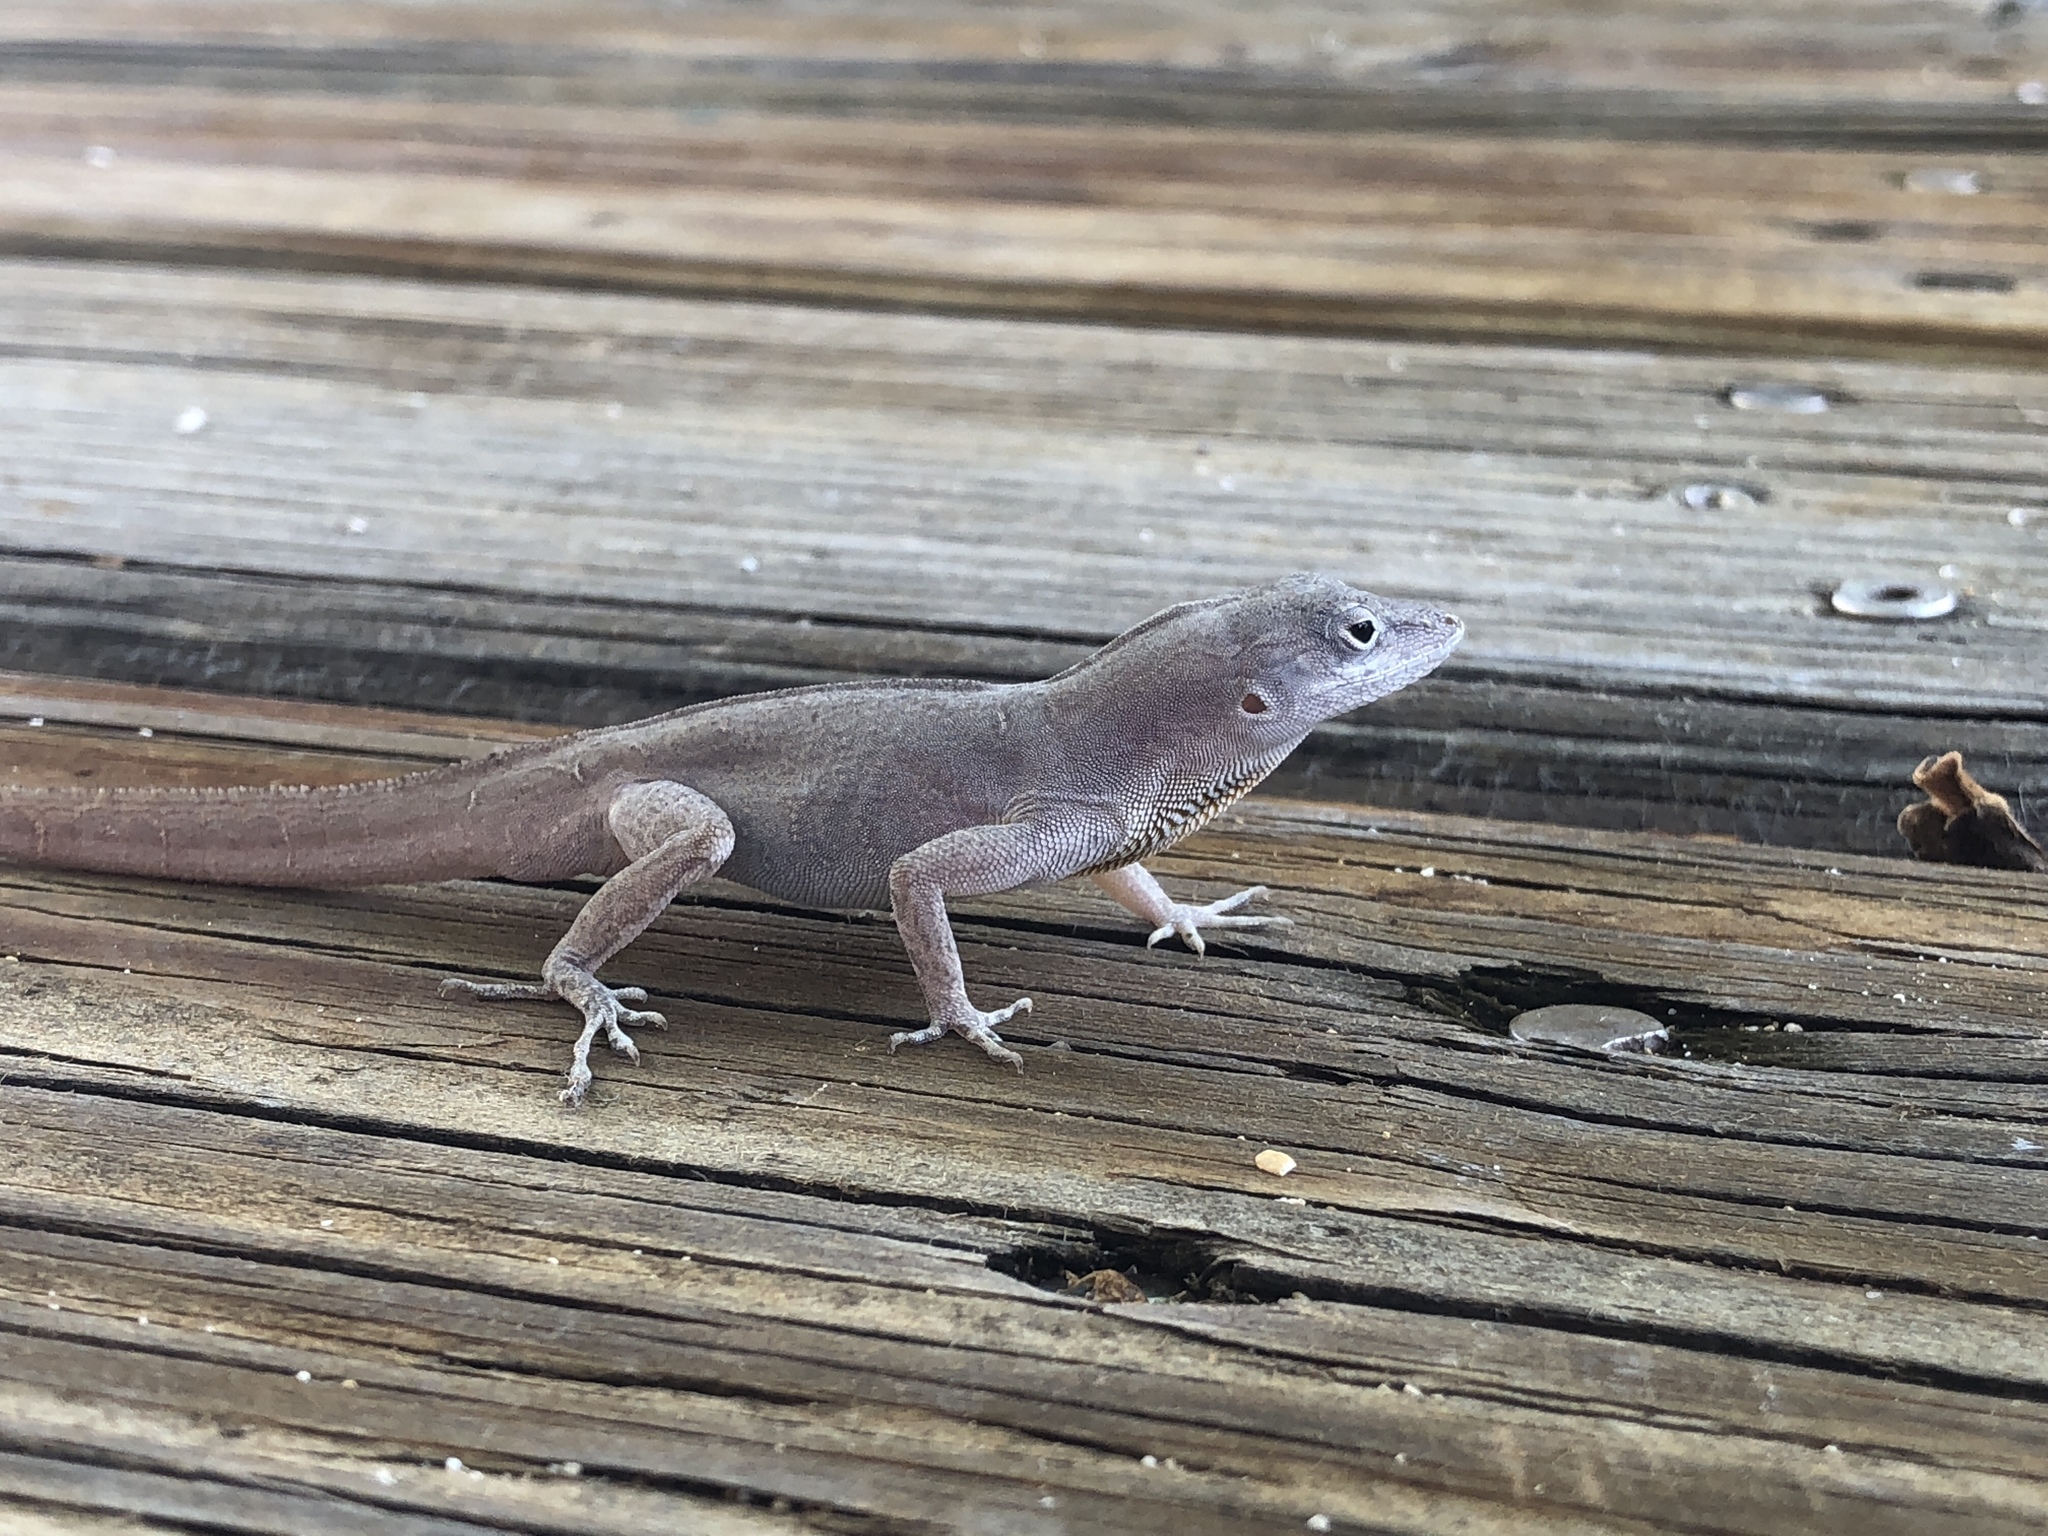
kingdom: Animalia
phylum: Chordata
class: Squamata
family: Dactyloidae
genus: Anolis
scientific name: Anolis sagrei
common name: Brown anole
